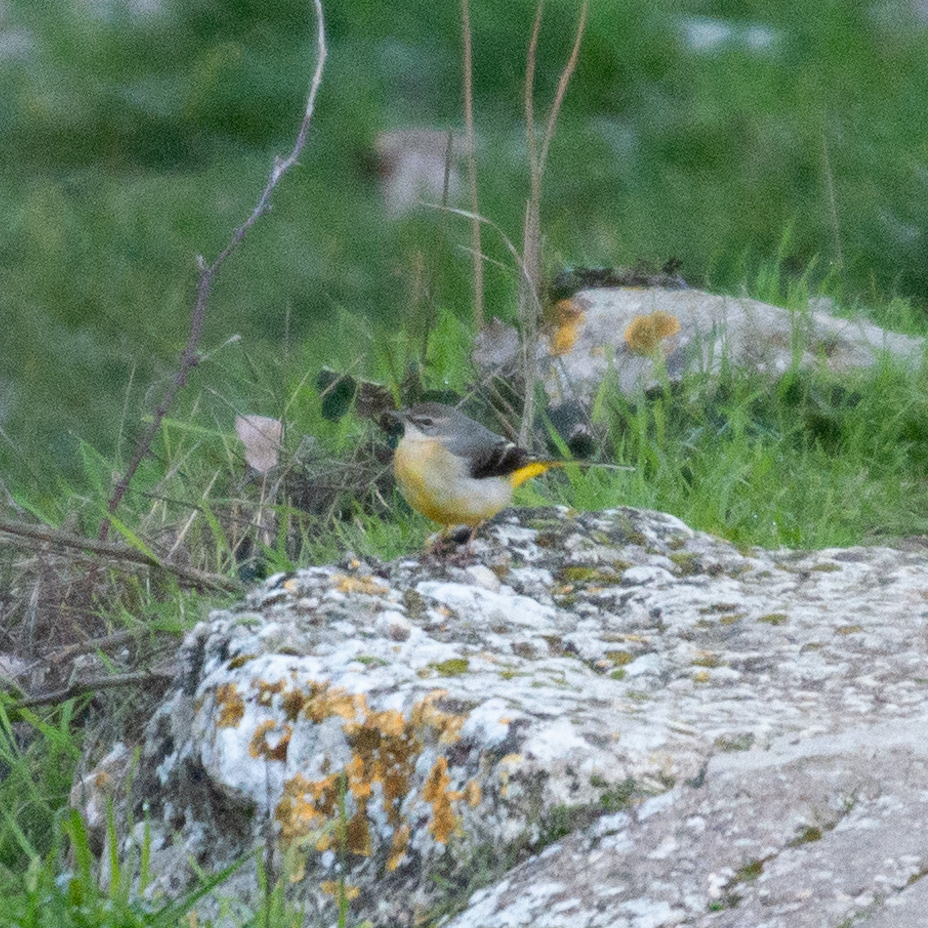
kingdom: Animalia
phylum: Chordata
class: Aves
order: Passeriformes
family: Motacillidae
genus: Motacilla
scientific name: Motacilla cinerea
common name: Grey wagtail
